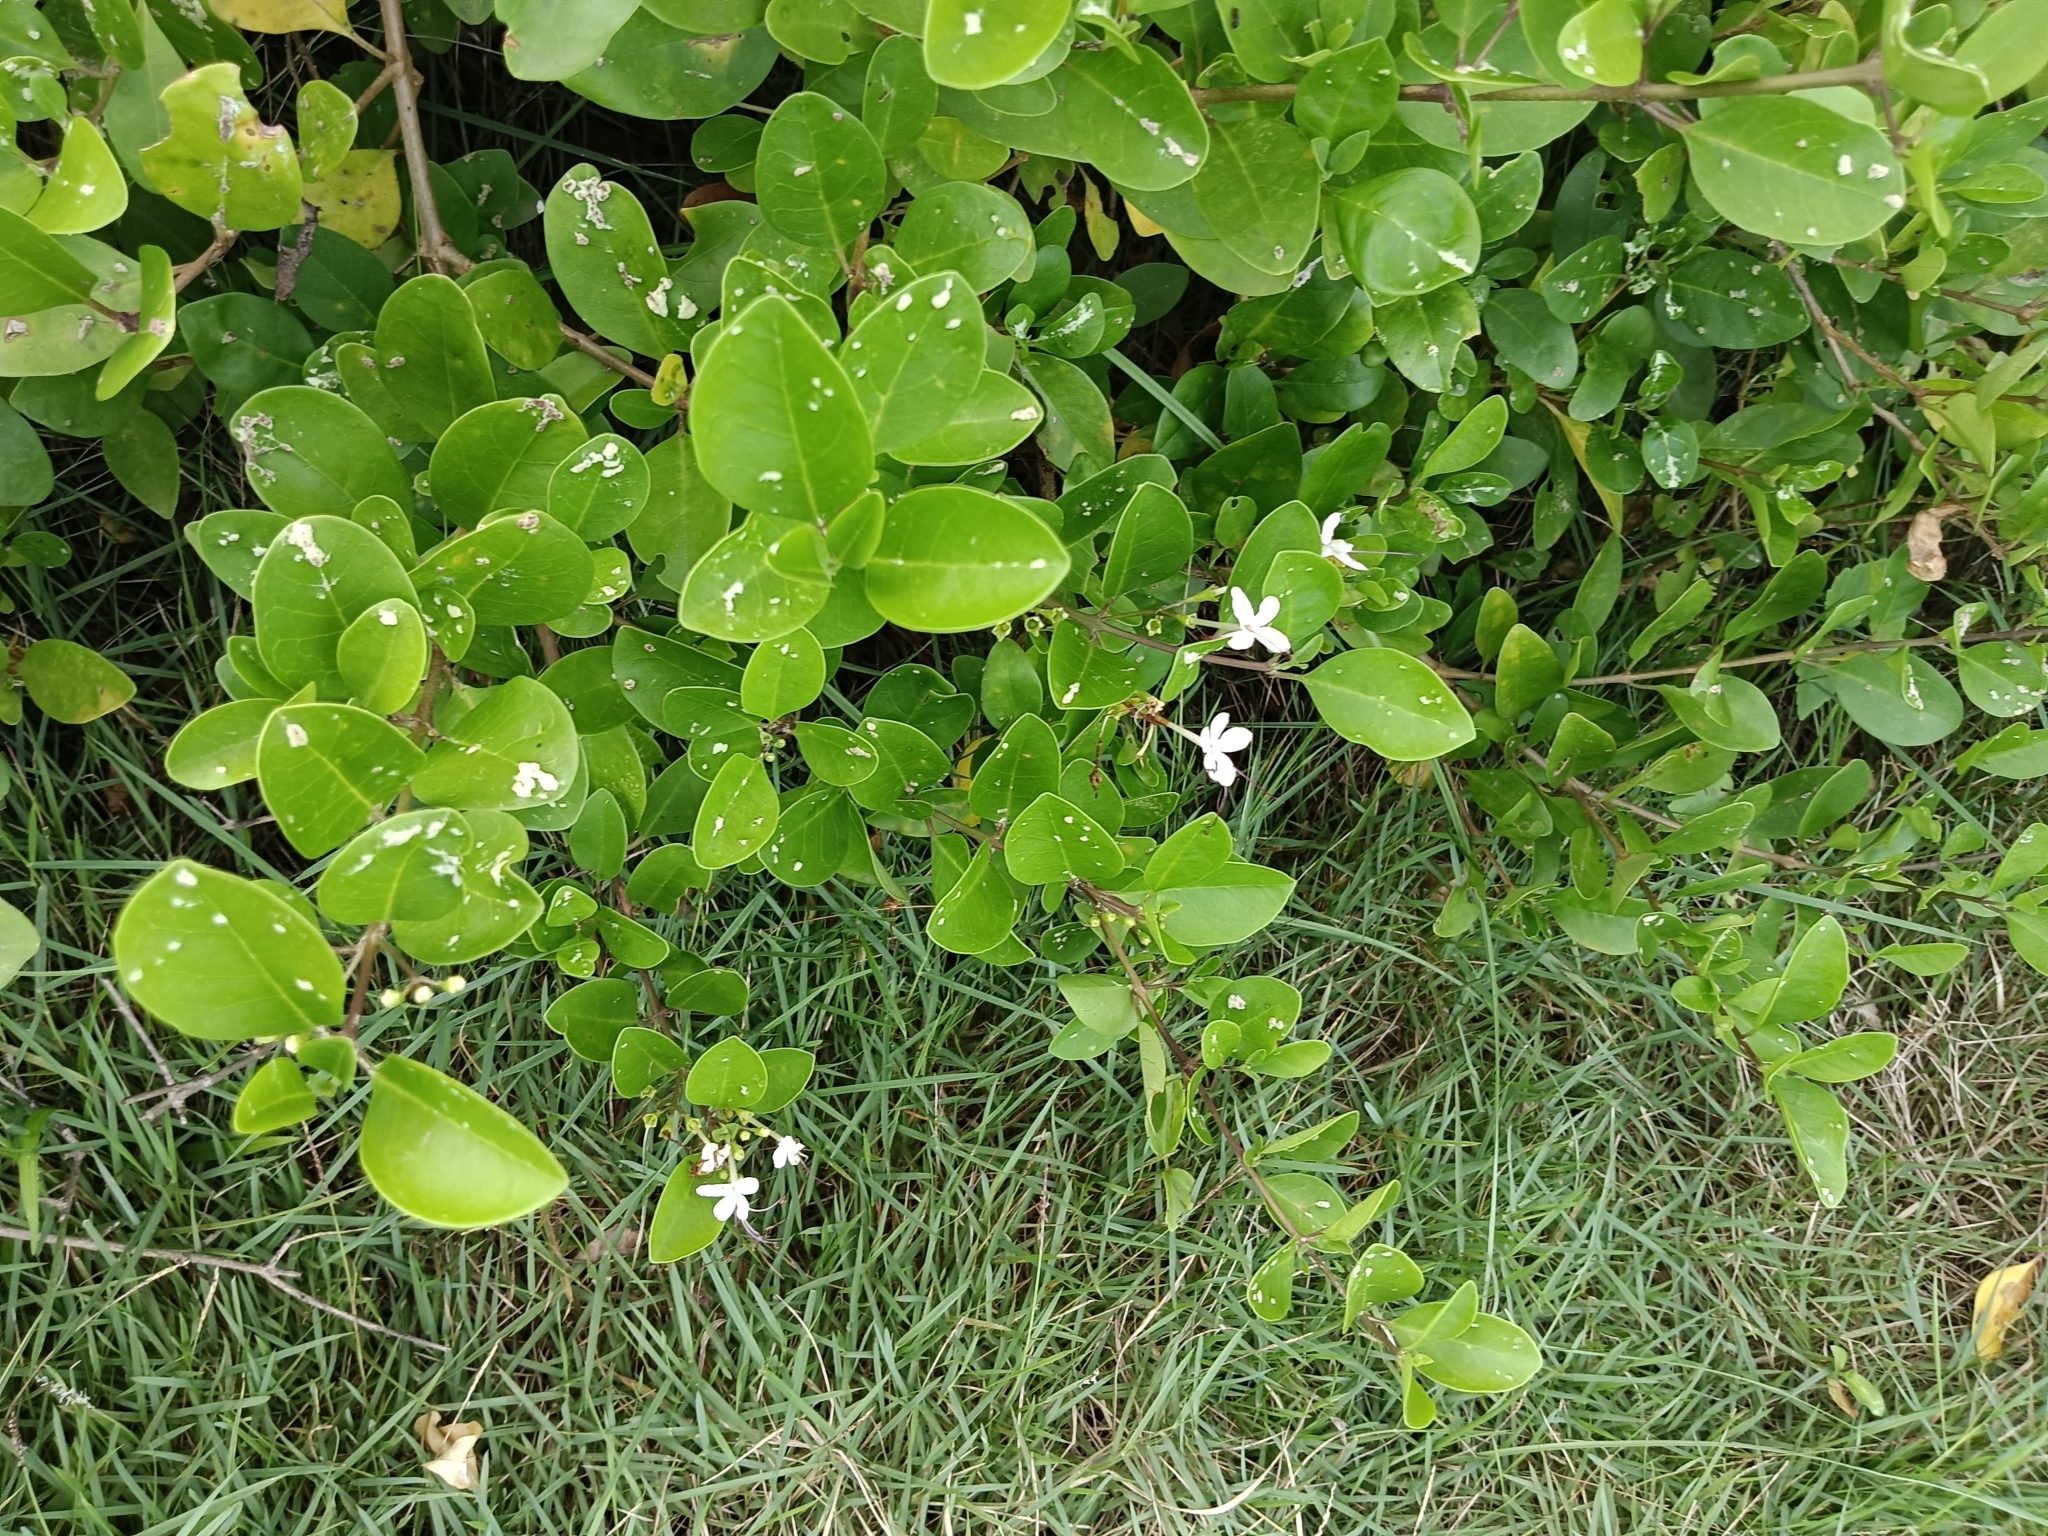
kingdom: Plantae
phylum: Tracheophyta
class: Magnoliopsida
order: Lamiales
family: Lamiaceae
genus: Volkameria
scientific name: Volkameria inermis
